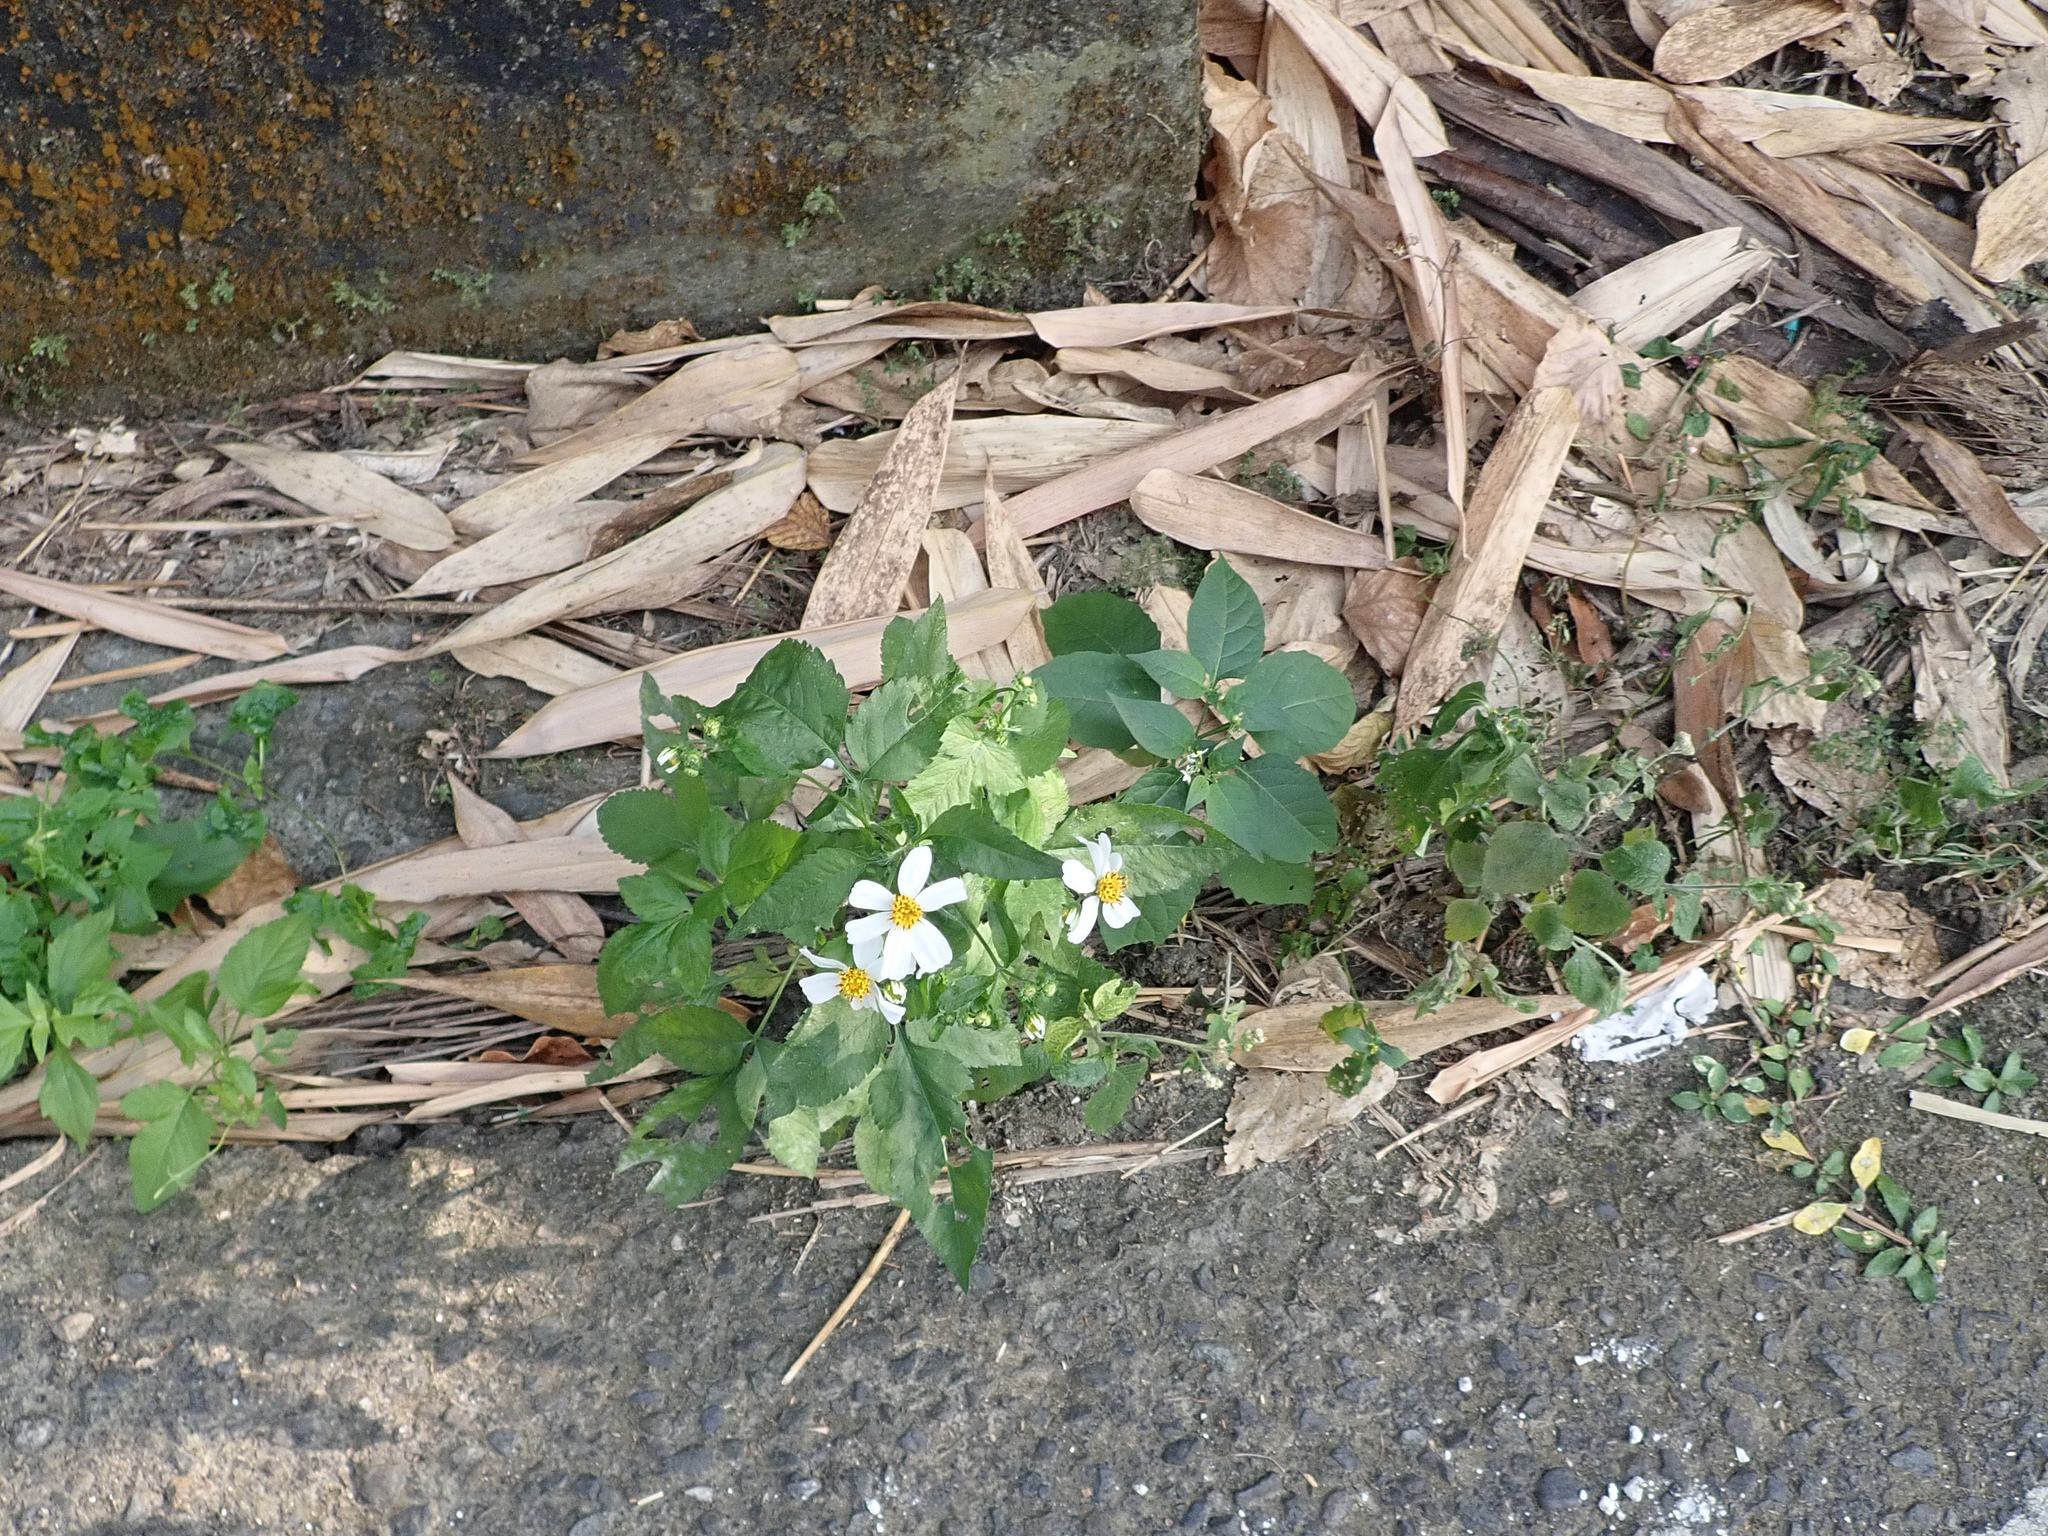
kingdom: Plantae
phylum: Tracheophyta
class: Magnoliopsida
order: Asterales
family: Asteraceae
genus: Bidens
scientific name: Bidens alba
